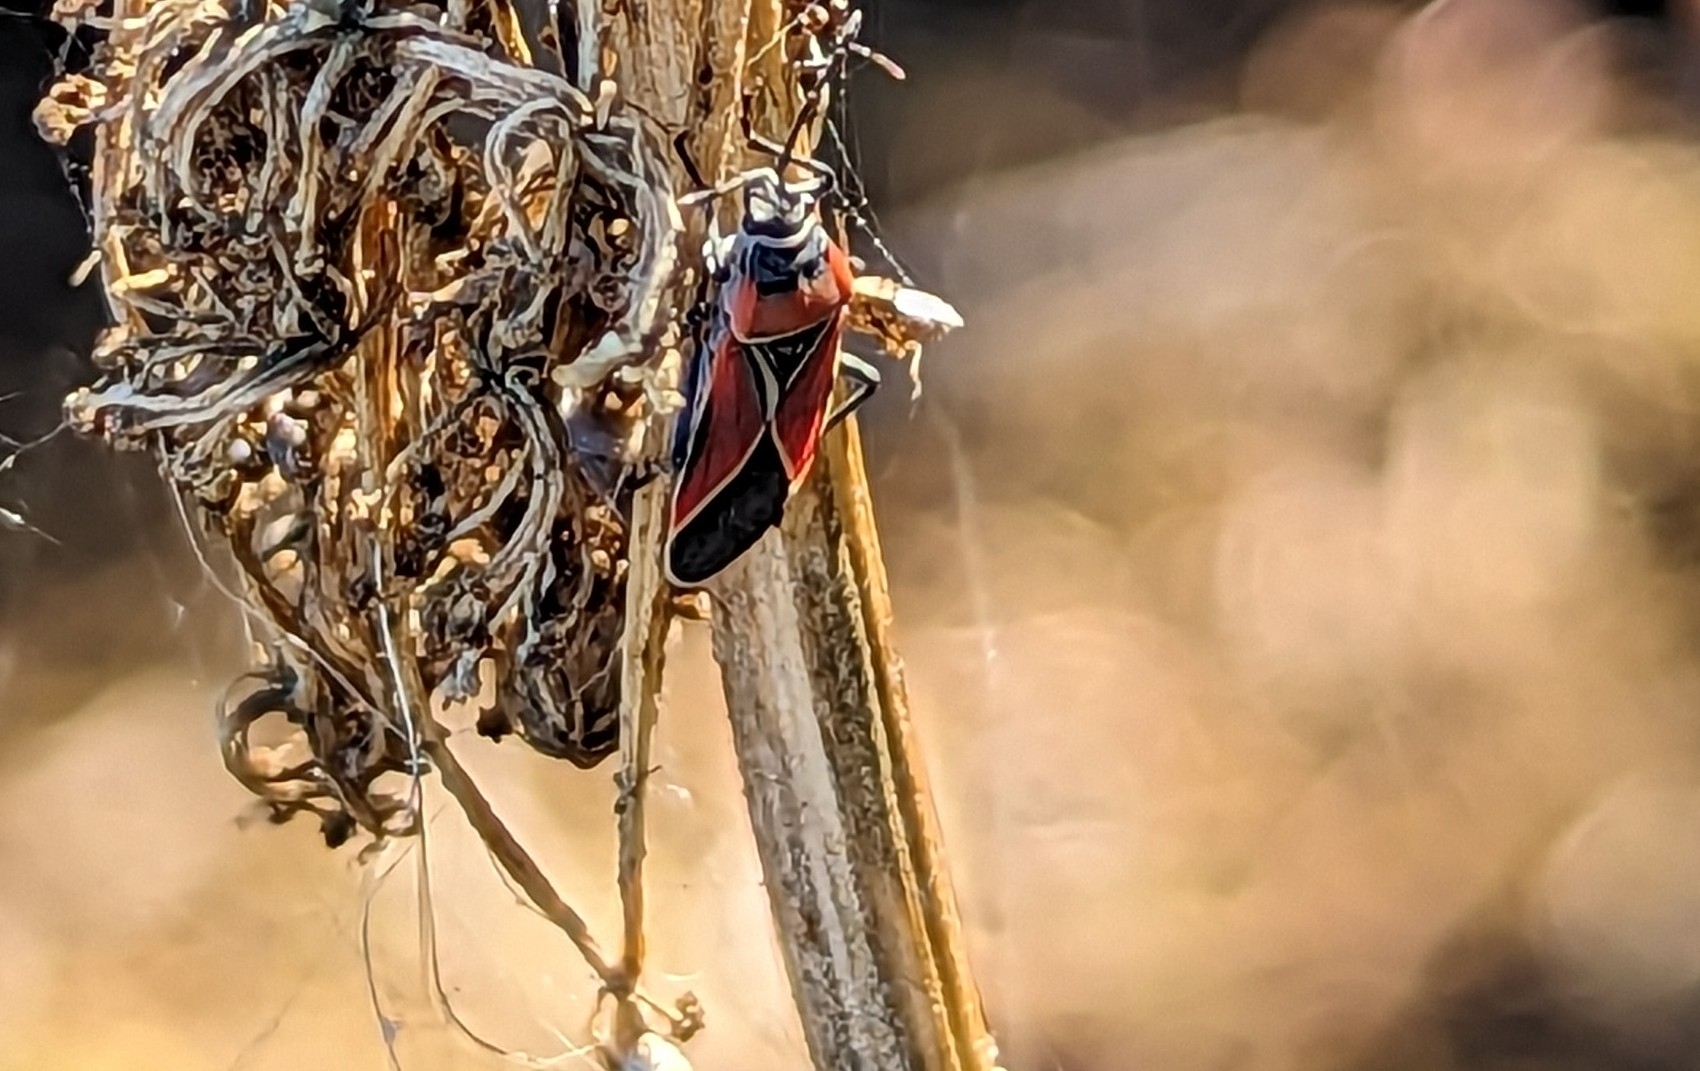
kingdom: Animalia
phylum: Arthropoda
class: Insecta
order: Hemiptera
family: Lygaeidae
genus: Neacoryphus
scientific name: Neacoryphus bicrucis
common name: Lygaeid bug
